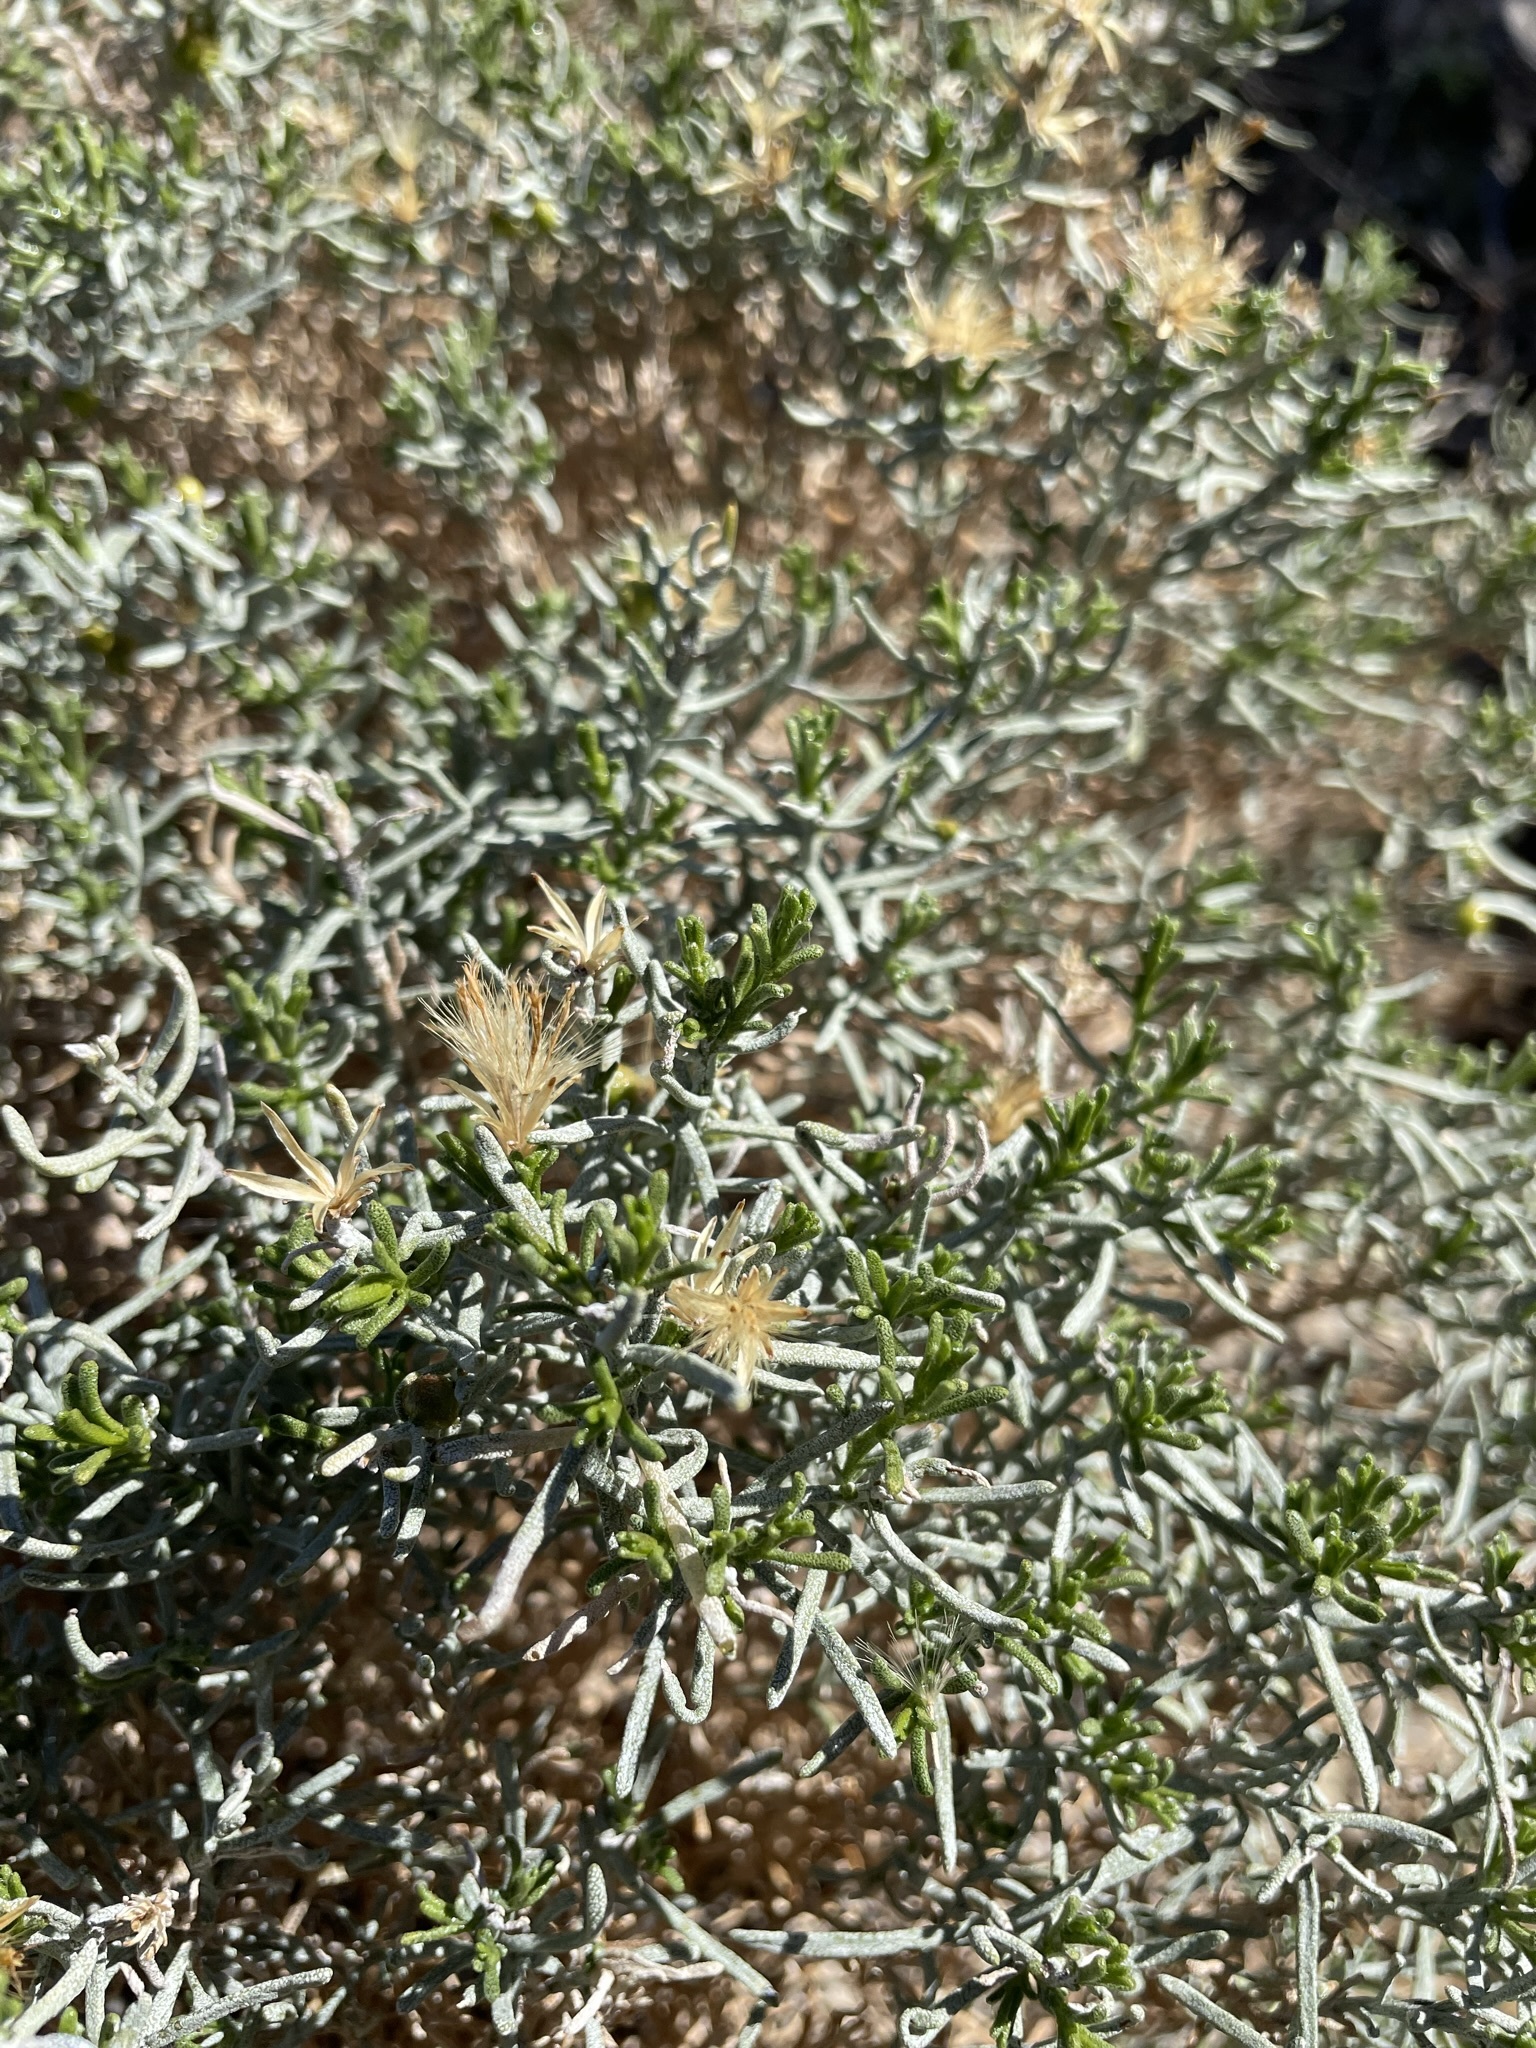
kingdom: Plantae
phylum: Tracheophyta
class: Magnoliopsida
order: Asterales
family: Asteraceae
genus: Ericameria
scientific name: Ericameria teretifolia
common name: Round-leaf rabbitbrush
